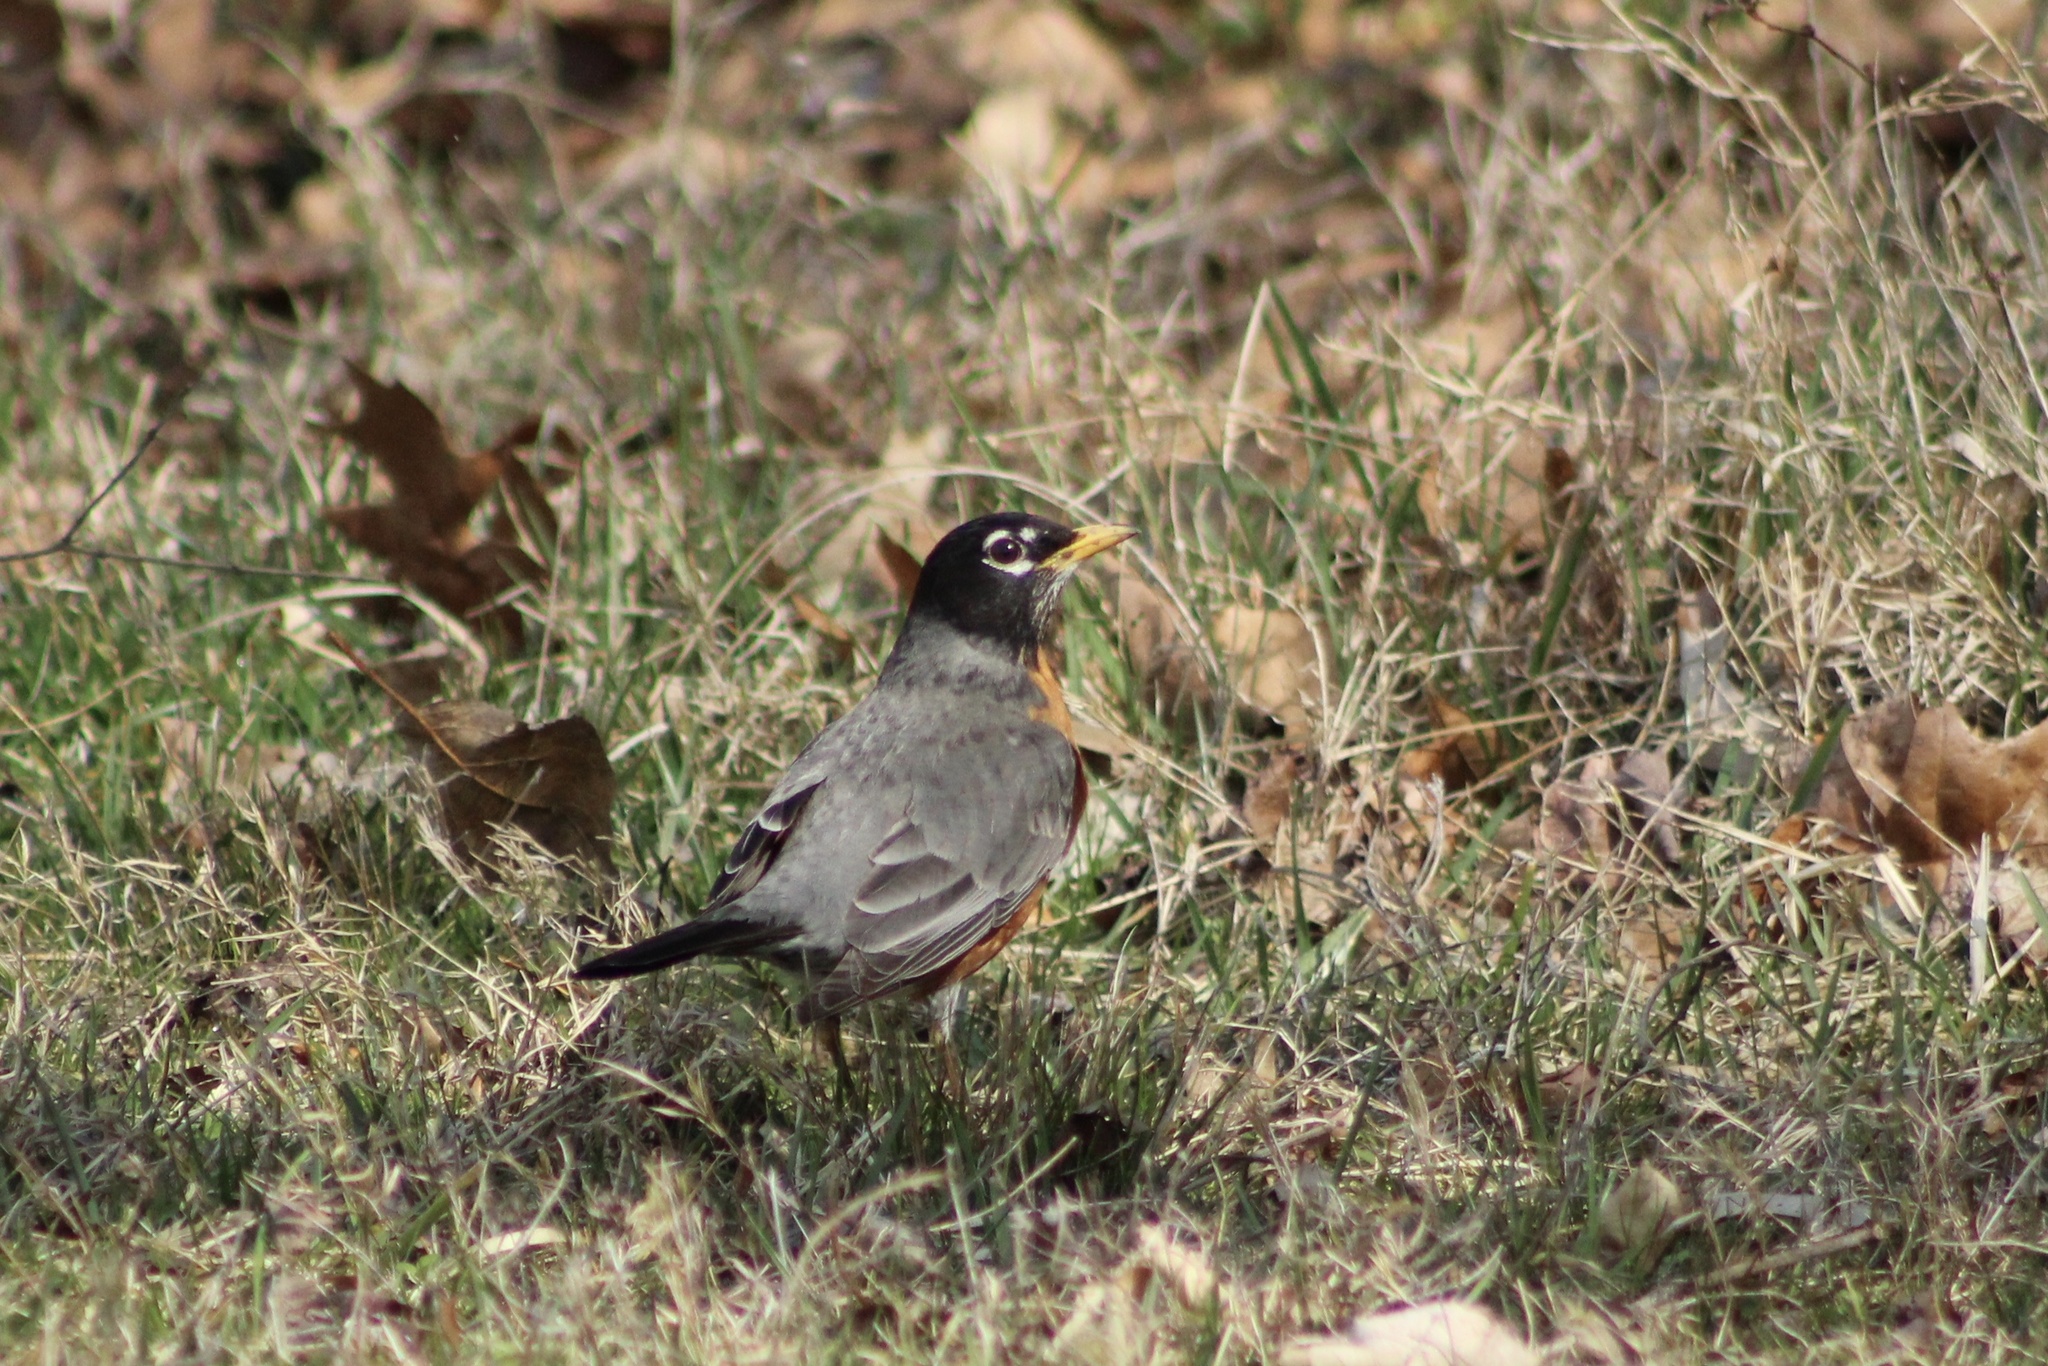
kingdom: Animalia
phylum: Chordata
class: Aves
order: Passeriformes
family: Turdidae
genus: Turdus
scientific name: Turdus migratorius
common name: American robin
